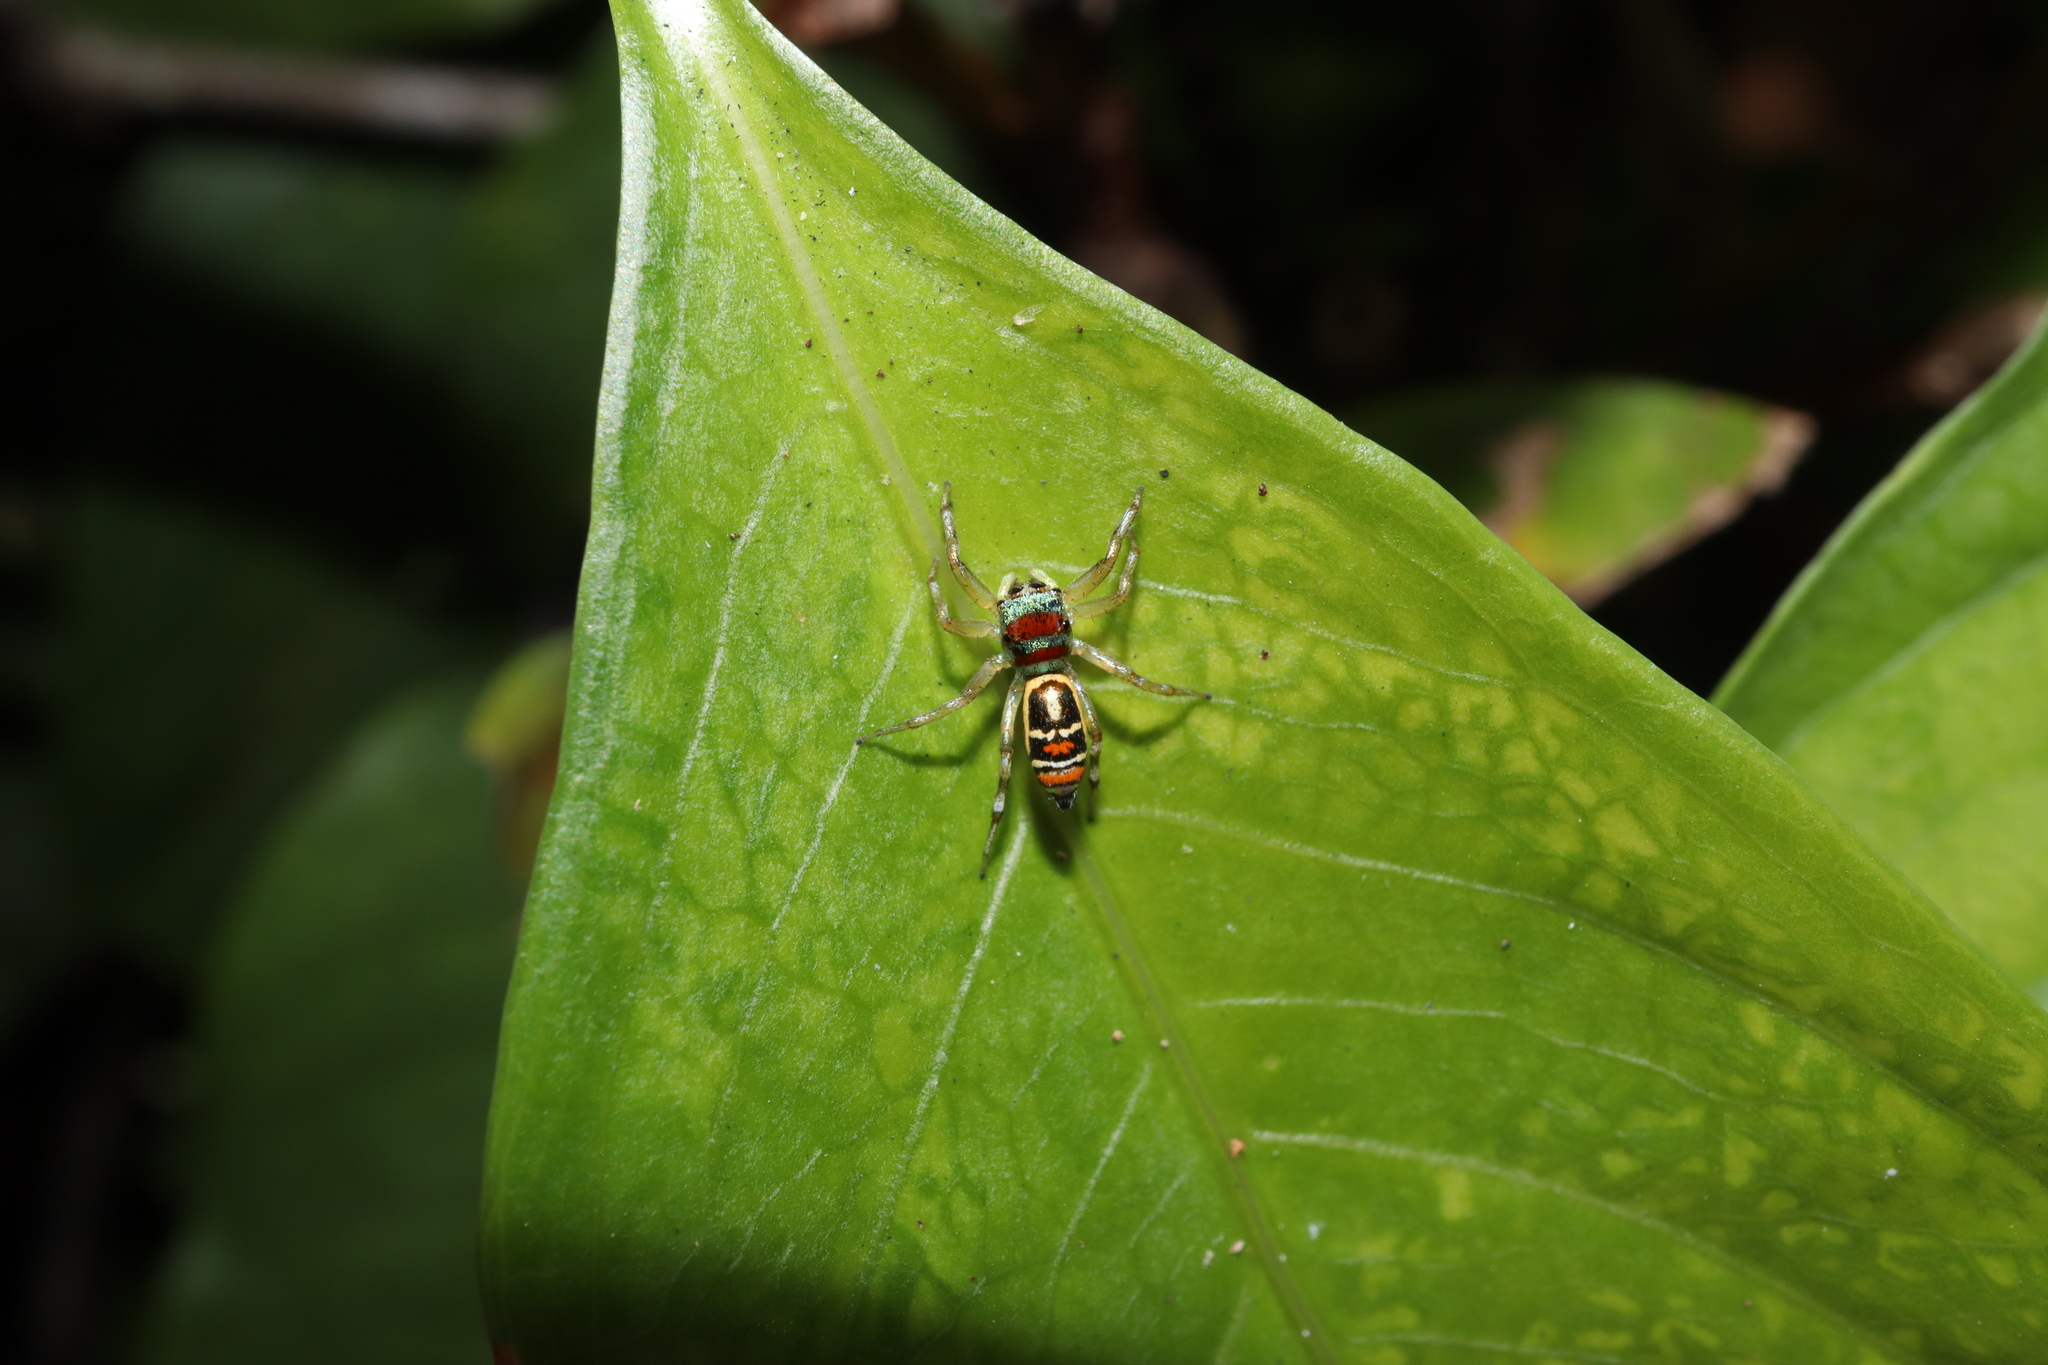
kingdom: Animalia
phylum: Arthropoda
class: Arachnida
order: Araneae
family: Salticidae
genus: Cosmophasis
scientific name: Cosmophasis micarioides
